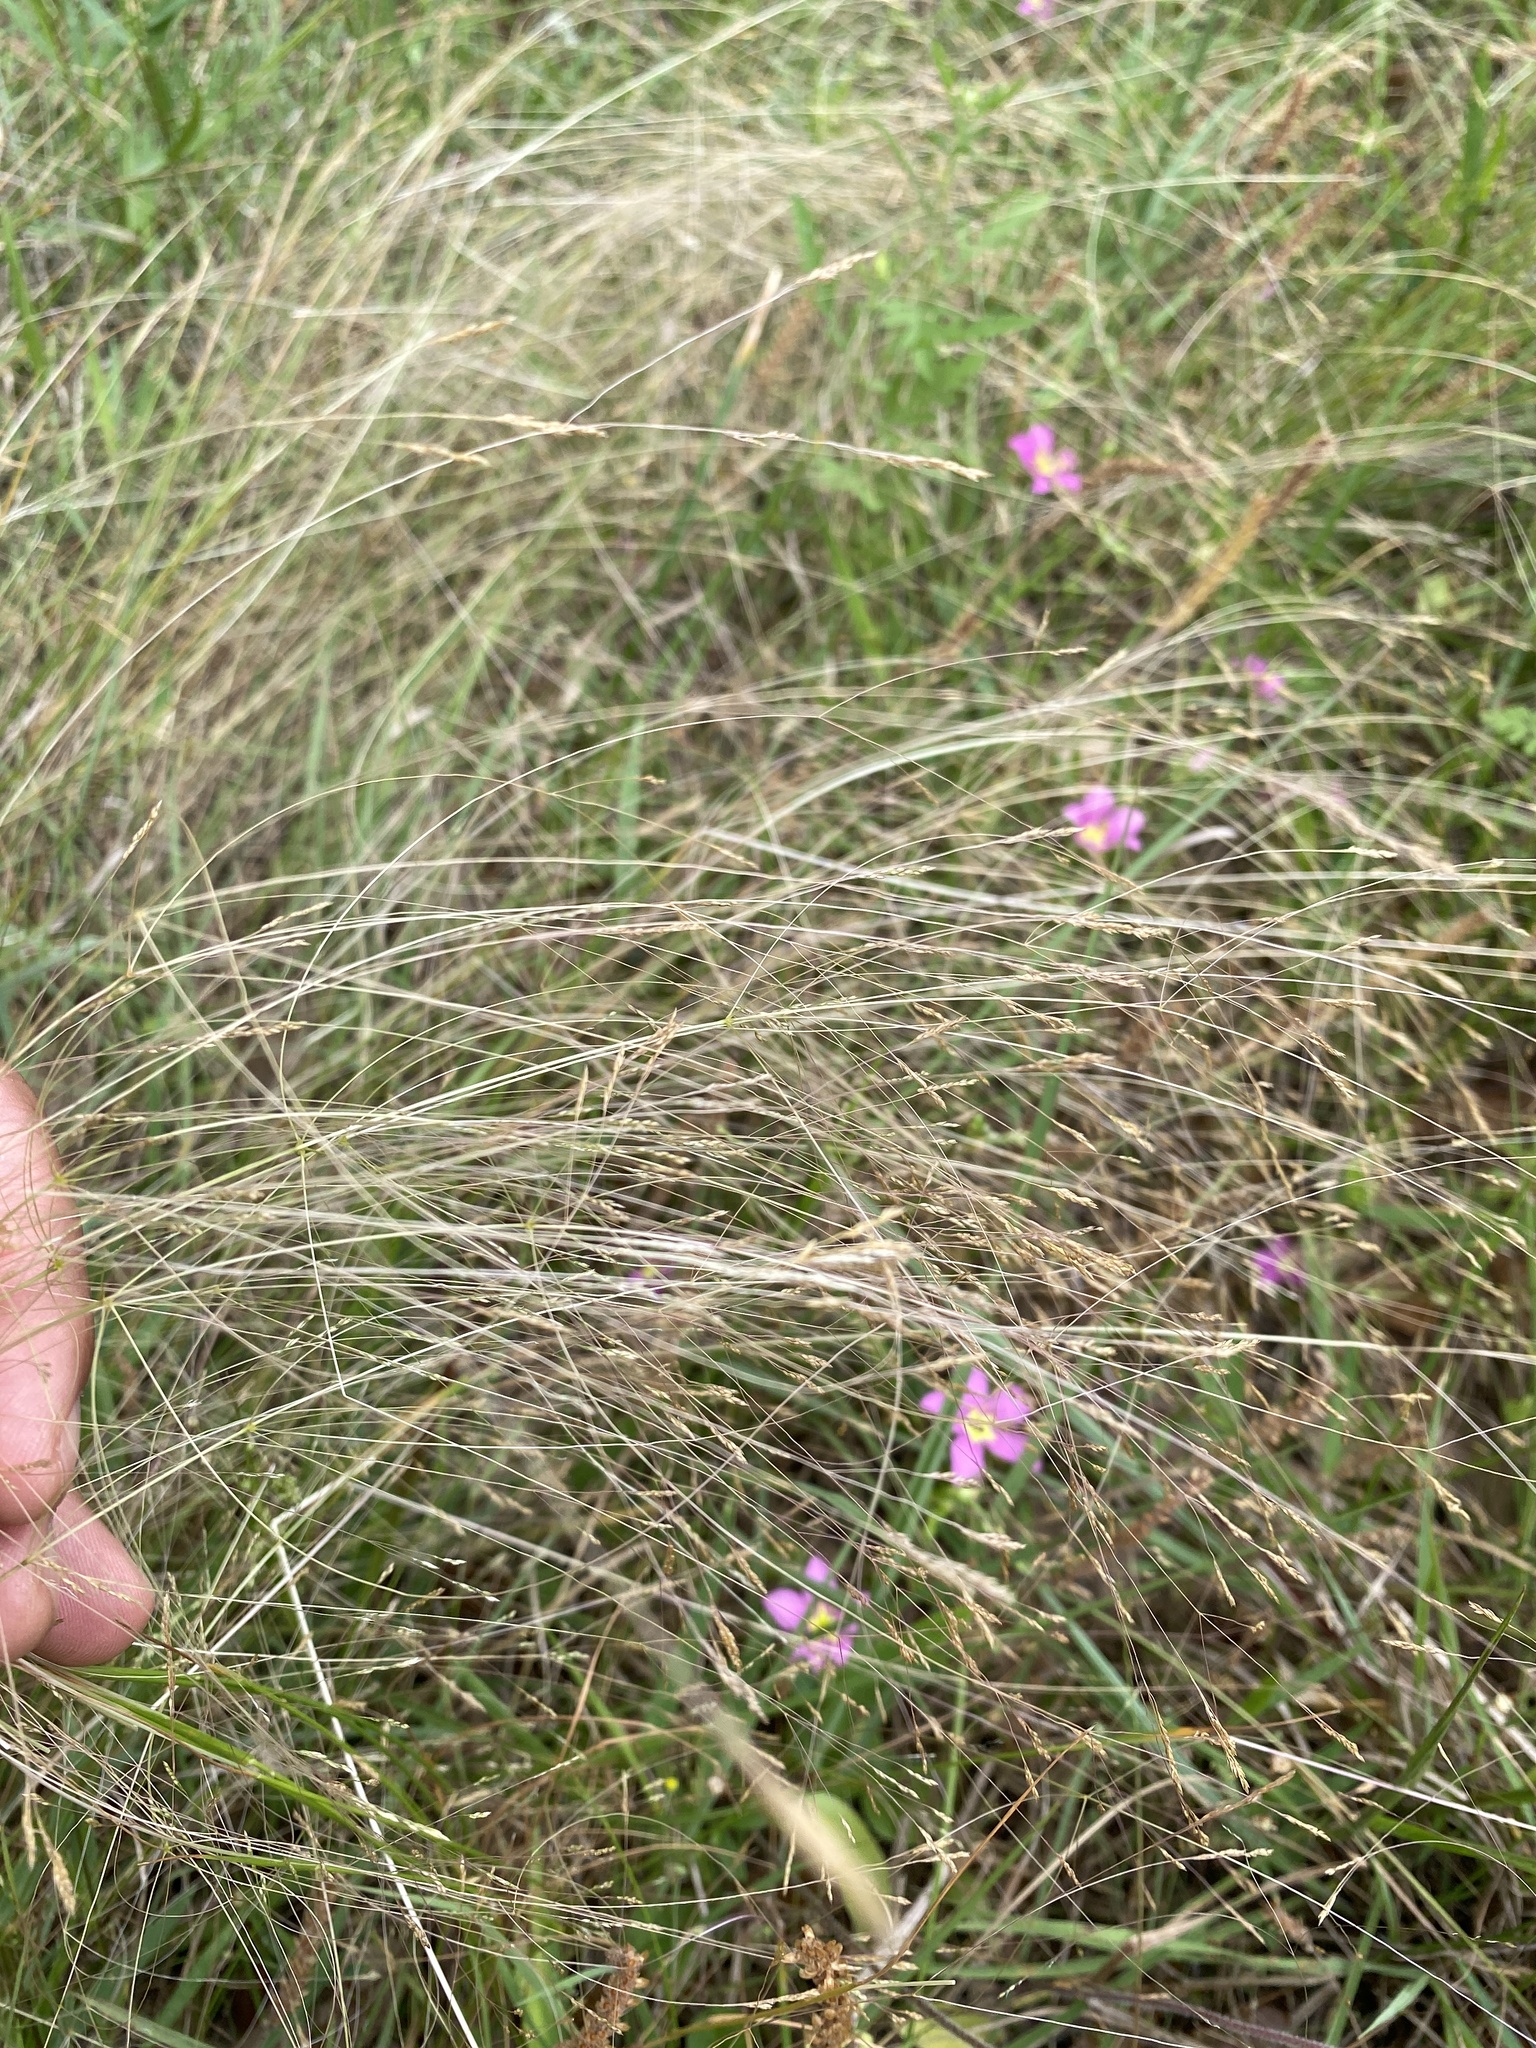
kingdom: Plantae
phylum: Tracheophyta
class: Liliopsida
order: Poales
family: Poaceae
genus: Agrostis
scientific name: Agrostis hyemalis
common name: Small bent
